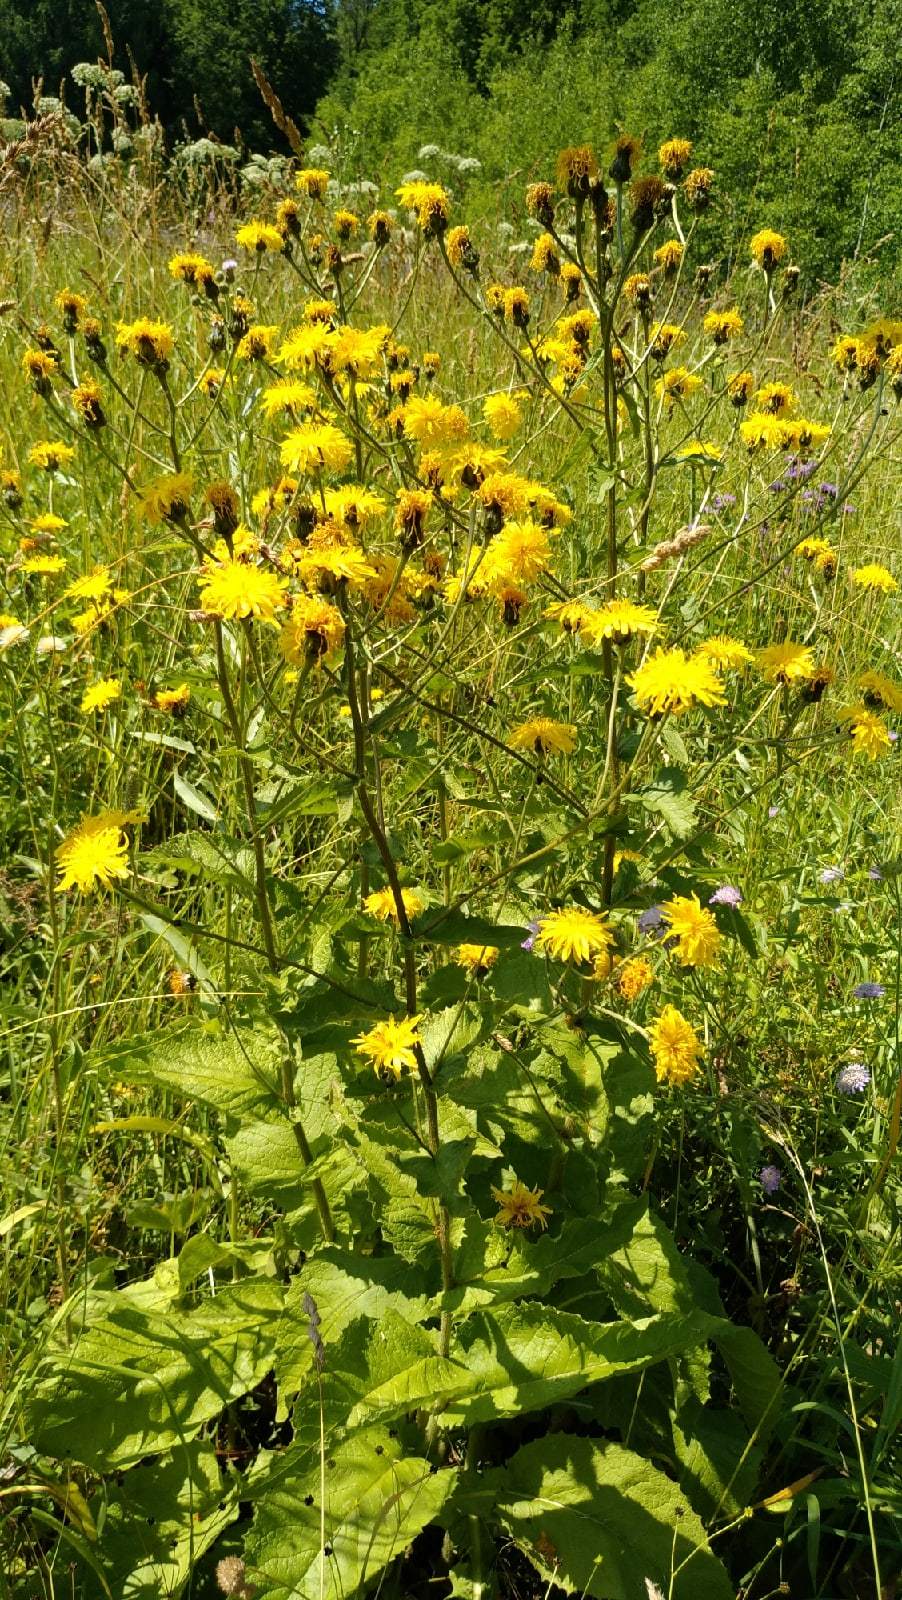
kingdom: Plantae
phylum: Tracheophyta
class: Magnoliopsida
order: Asterales
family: Asteraceae
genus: Crepis
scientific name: Crepis sibirica
